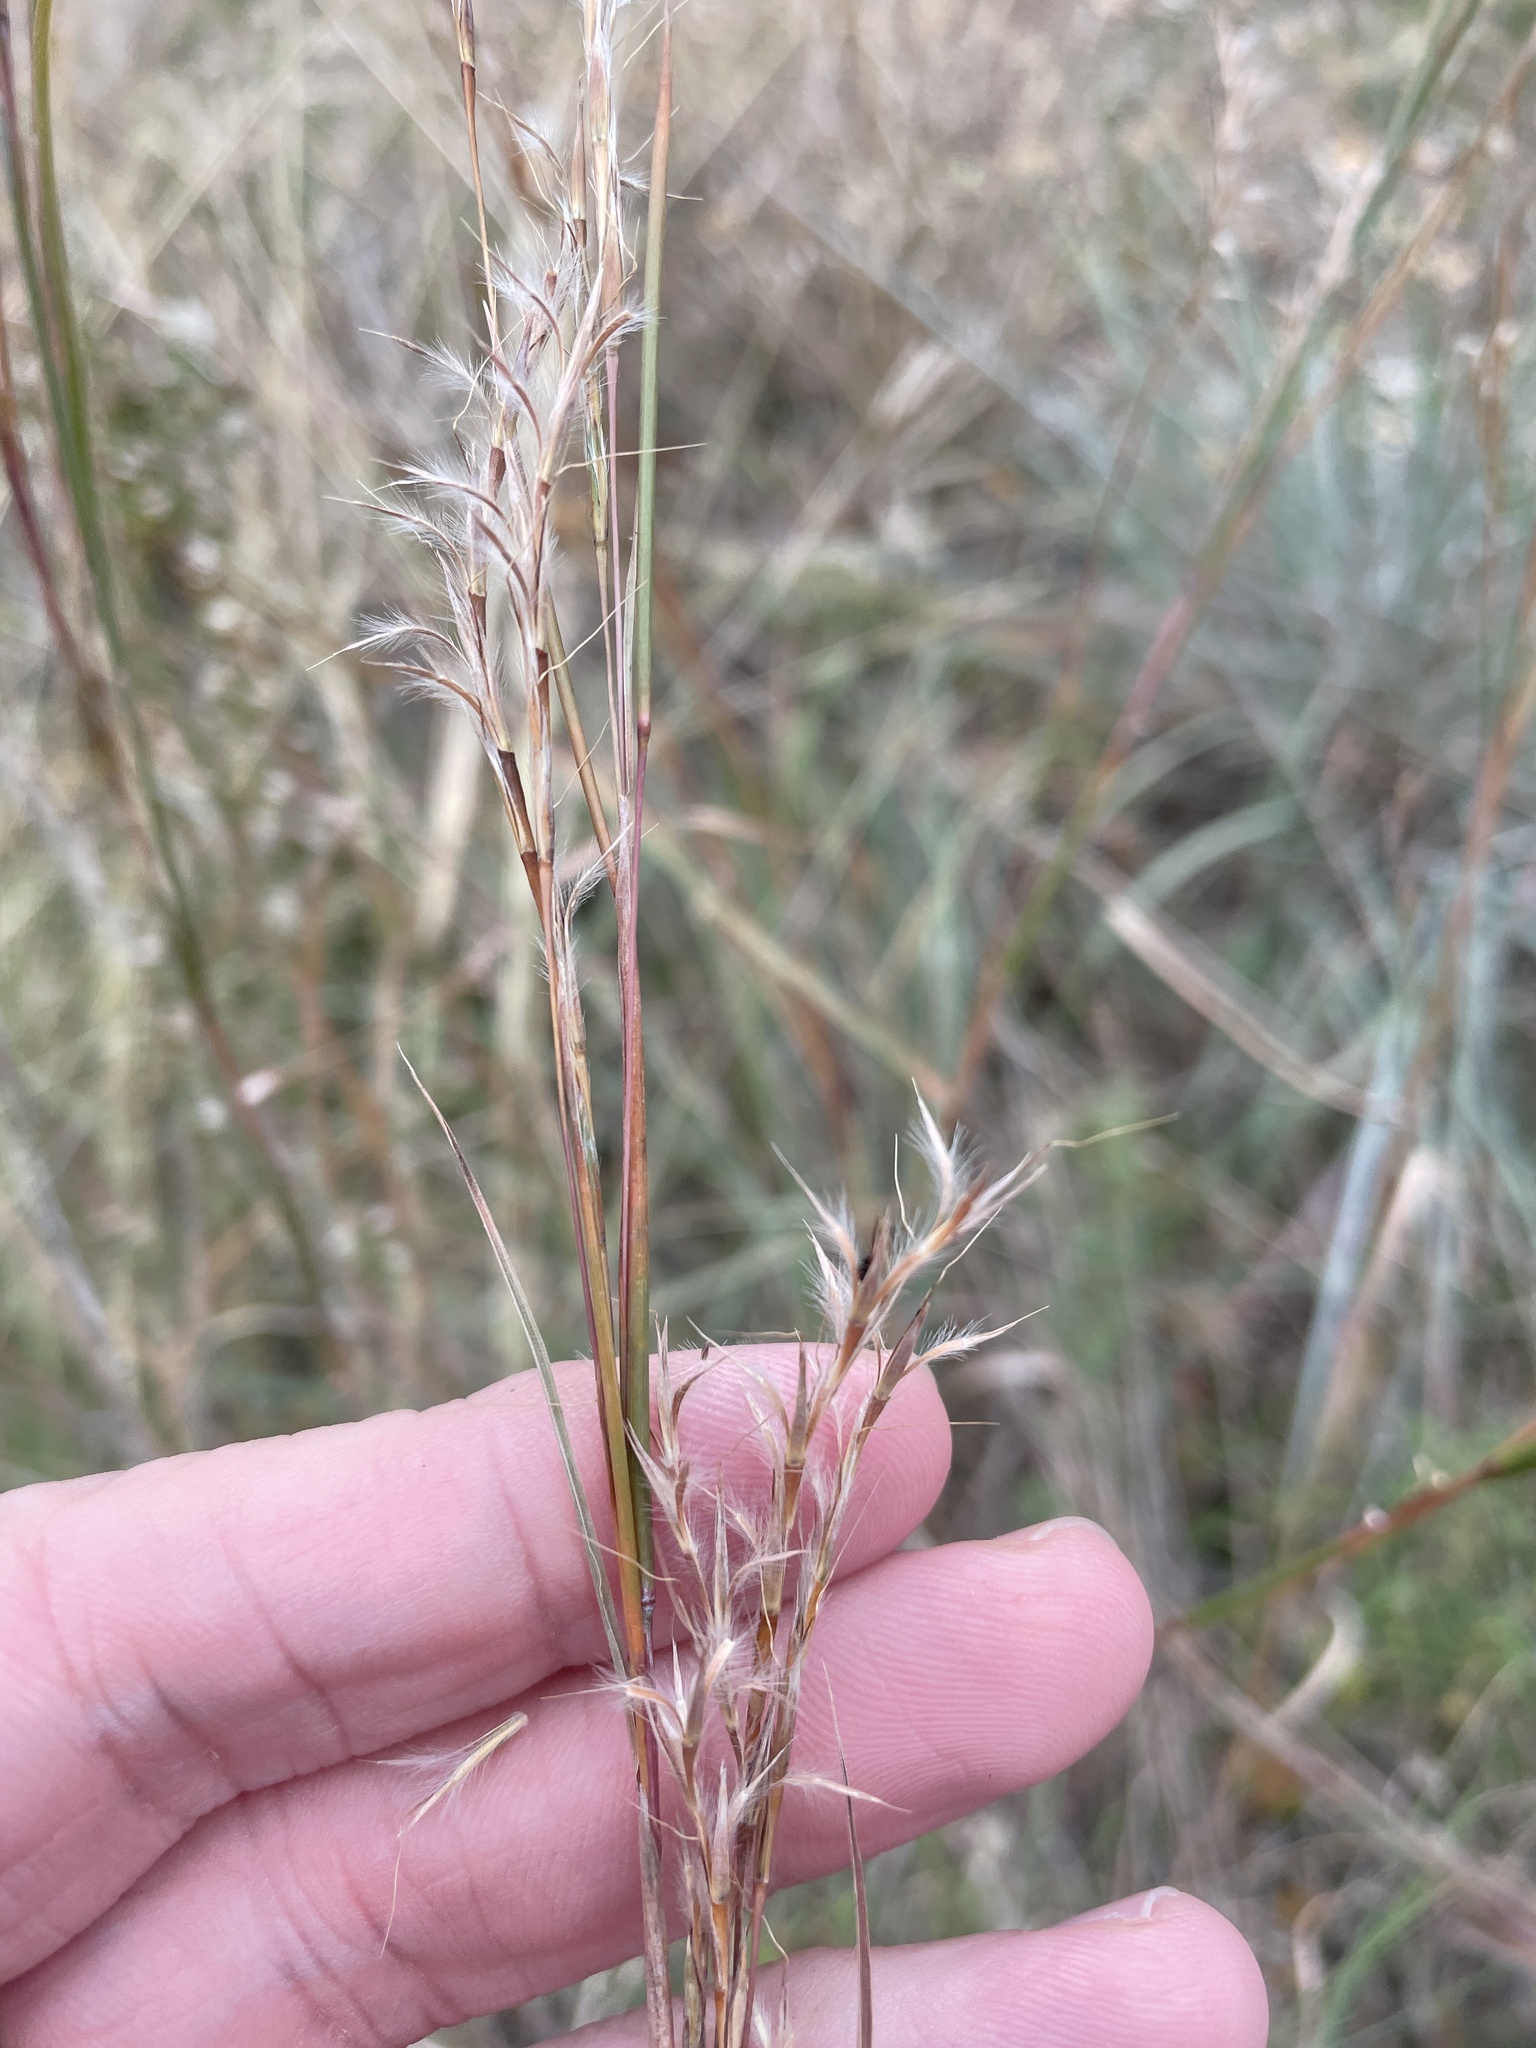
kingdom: Plantae
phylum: Tracheophyta
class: Liliopsida
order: Poales
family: Poaceae
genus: Schizachyrium
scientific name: Schizachyrium scoparium
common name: Little bluestem
